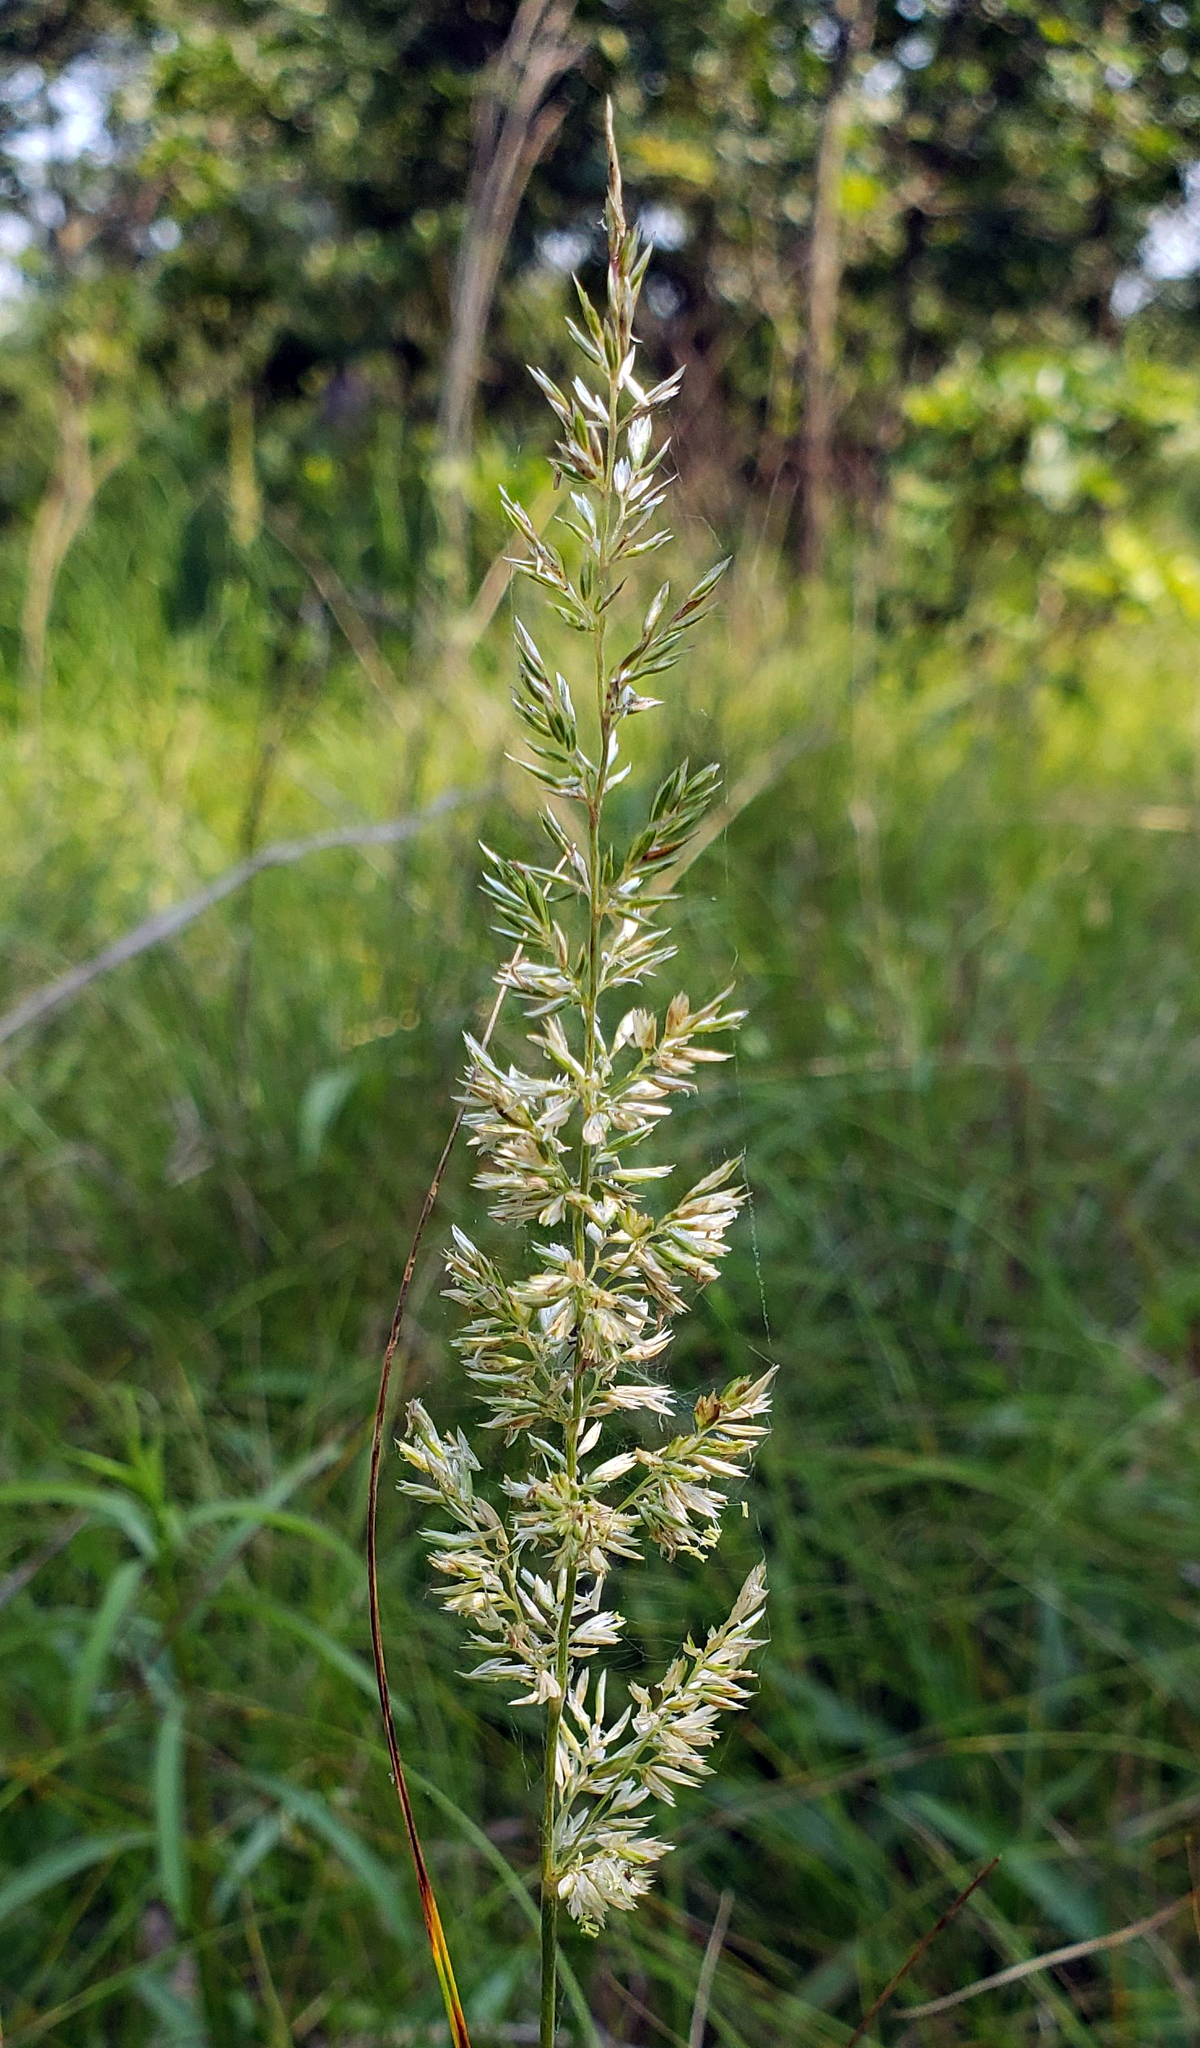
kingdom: Plantae
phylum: Tracheophyta
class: Liliopsida
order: Poales
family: Poaceae
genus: Koeleria
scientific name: Koeleria macrantha
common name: Crested hair-grass
